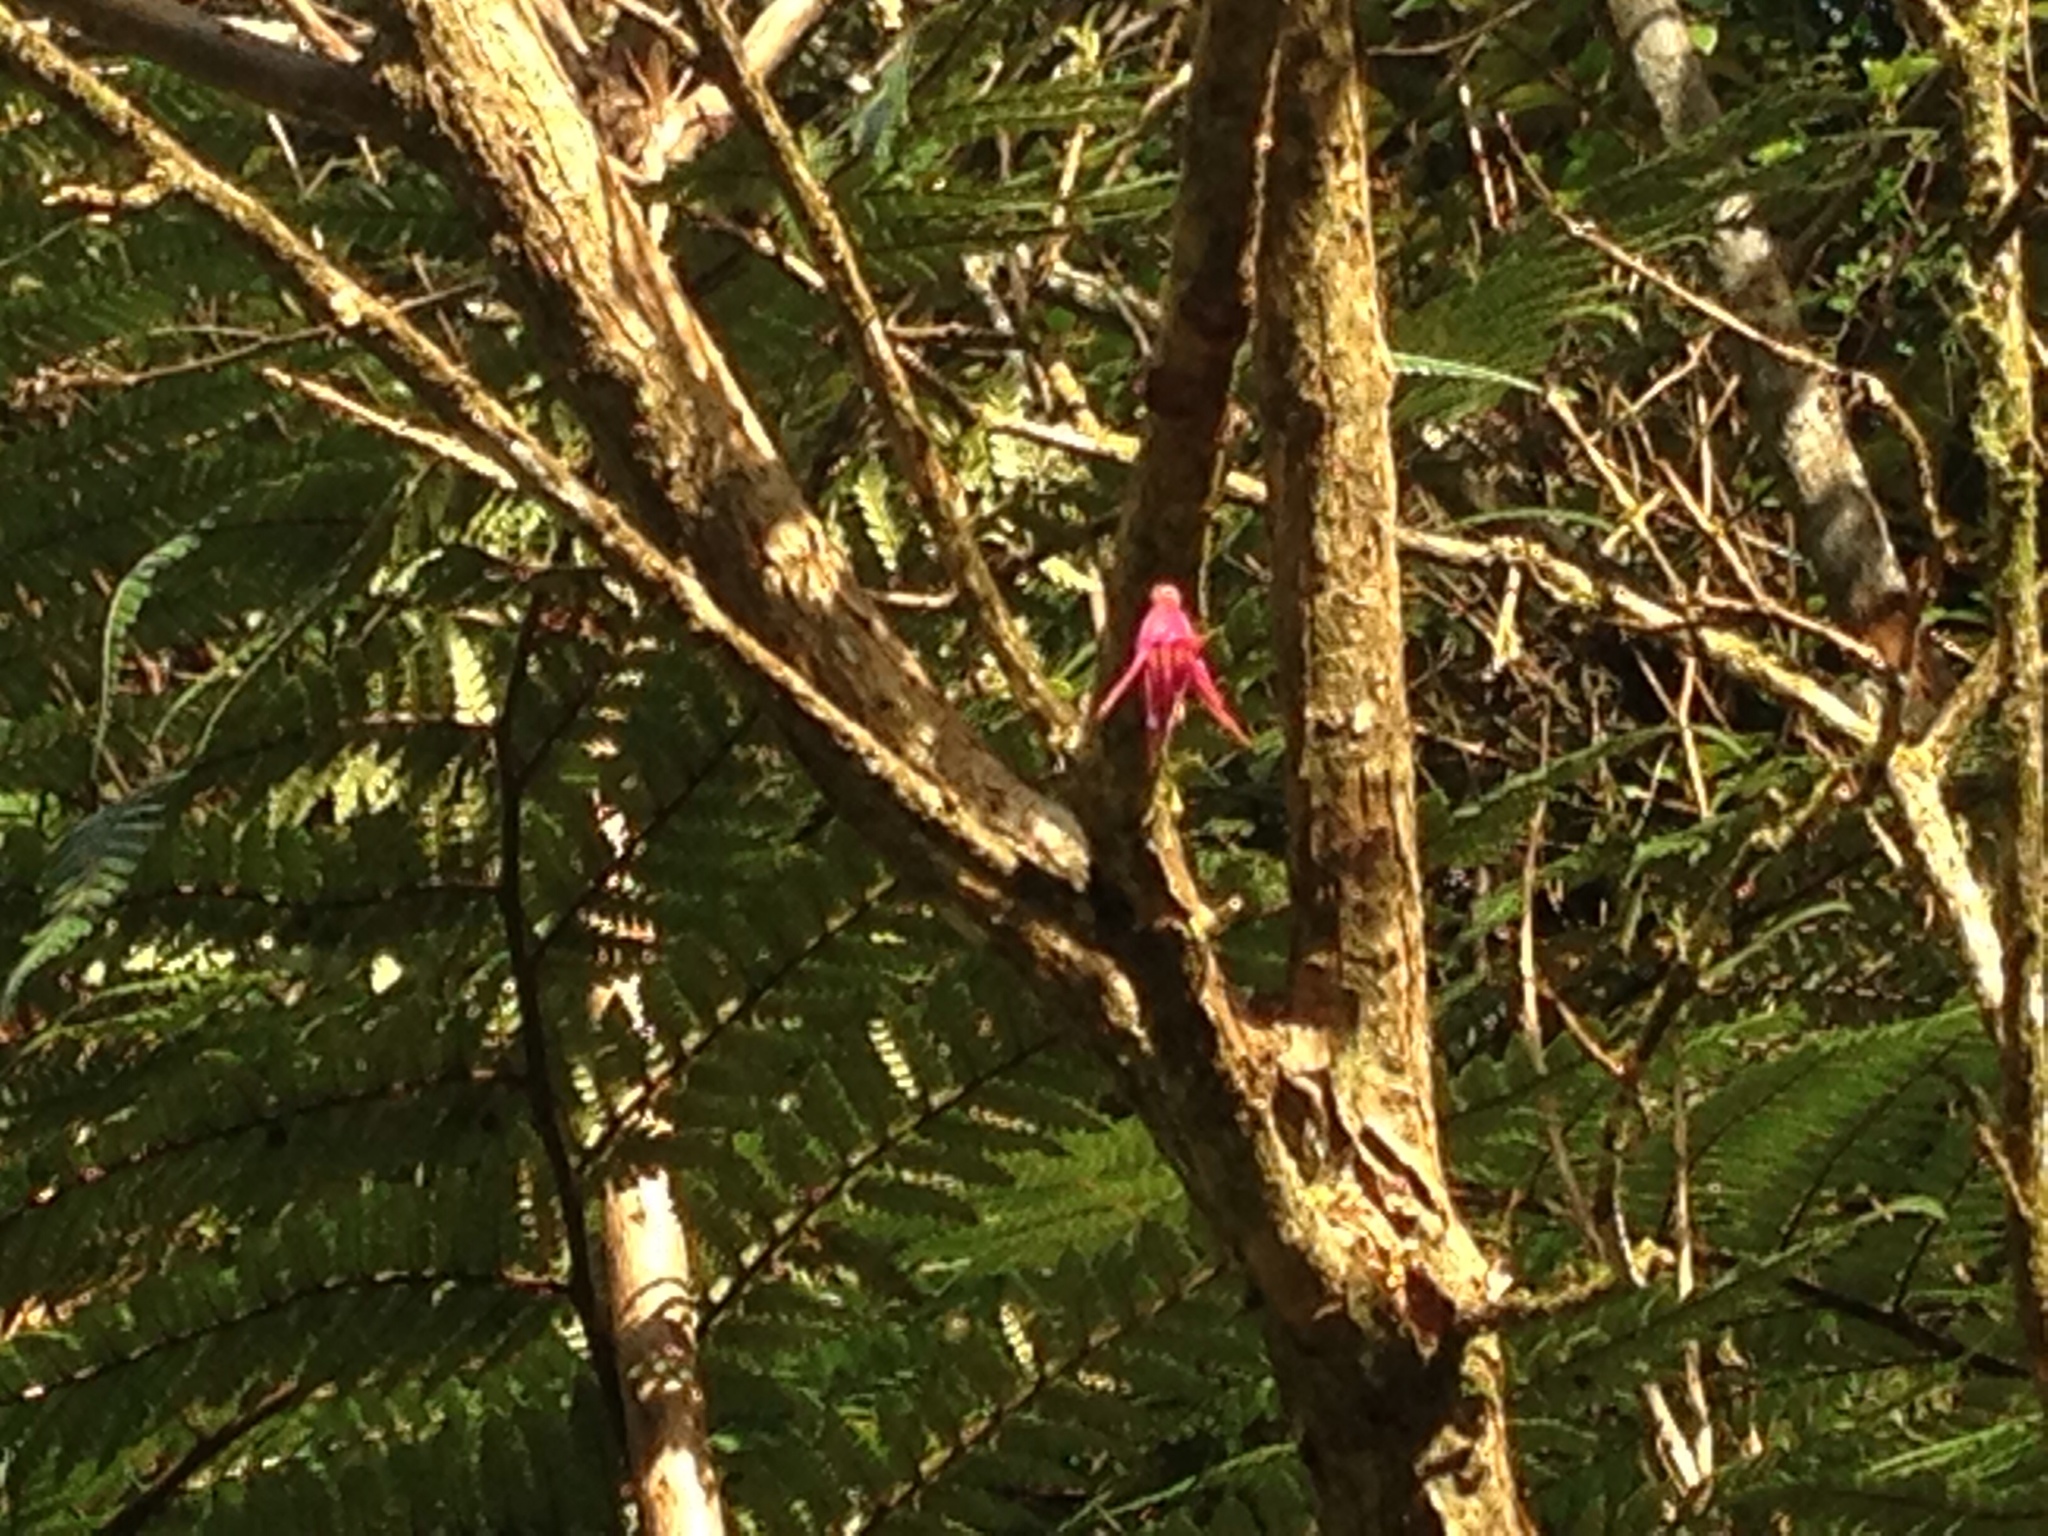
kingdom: Plantae
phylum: Tracheophyta
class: Magnoliopsida
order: Myrtales
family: Onagraceae
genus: Fuchsia
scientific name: Fuchsia excorticata
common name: Tree fuchsia
